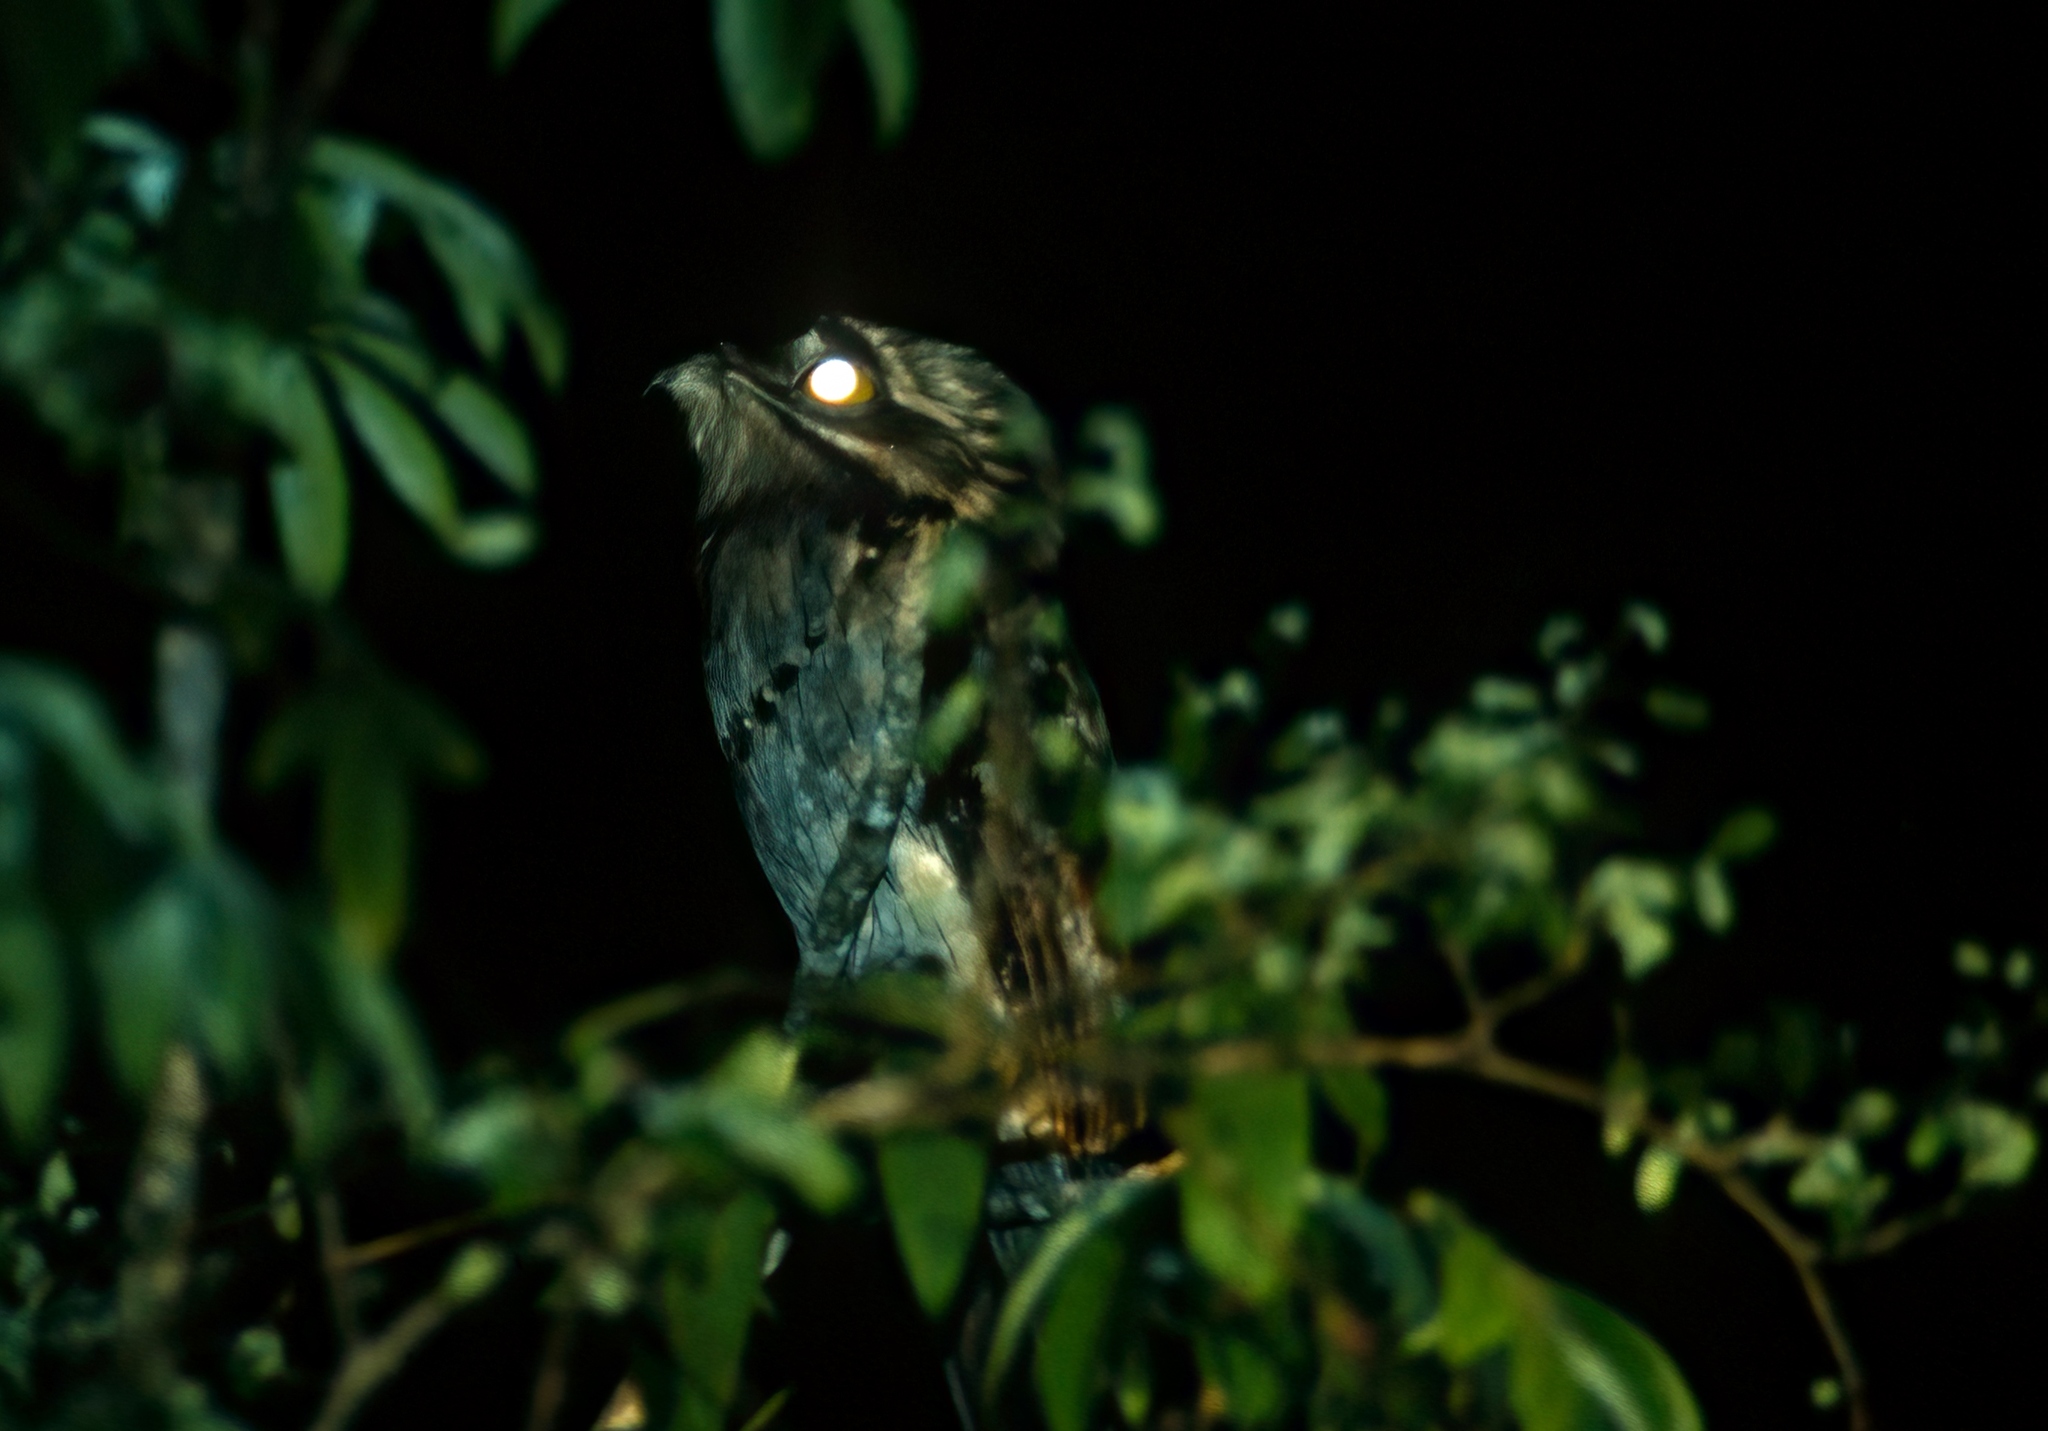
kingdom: Animalia
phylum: Chordata
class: Aves
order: Nyctibiiformes
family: Nyctibiidae
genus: Nyctibius
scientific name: Nyctibius jamaicensis
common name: Northern potoo
